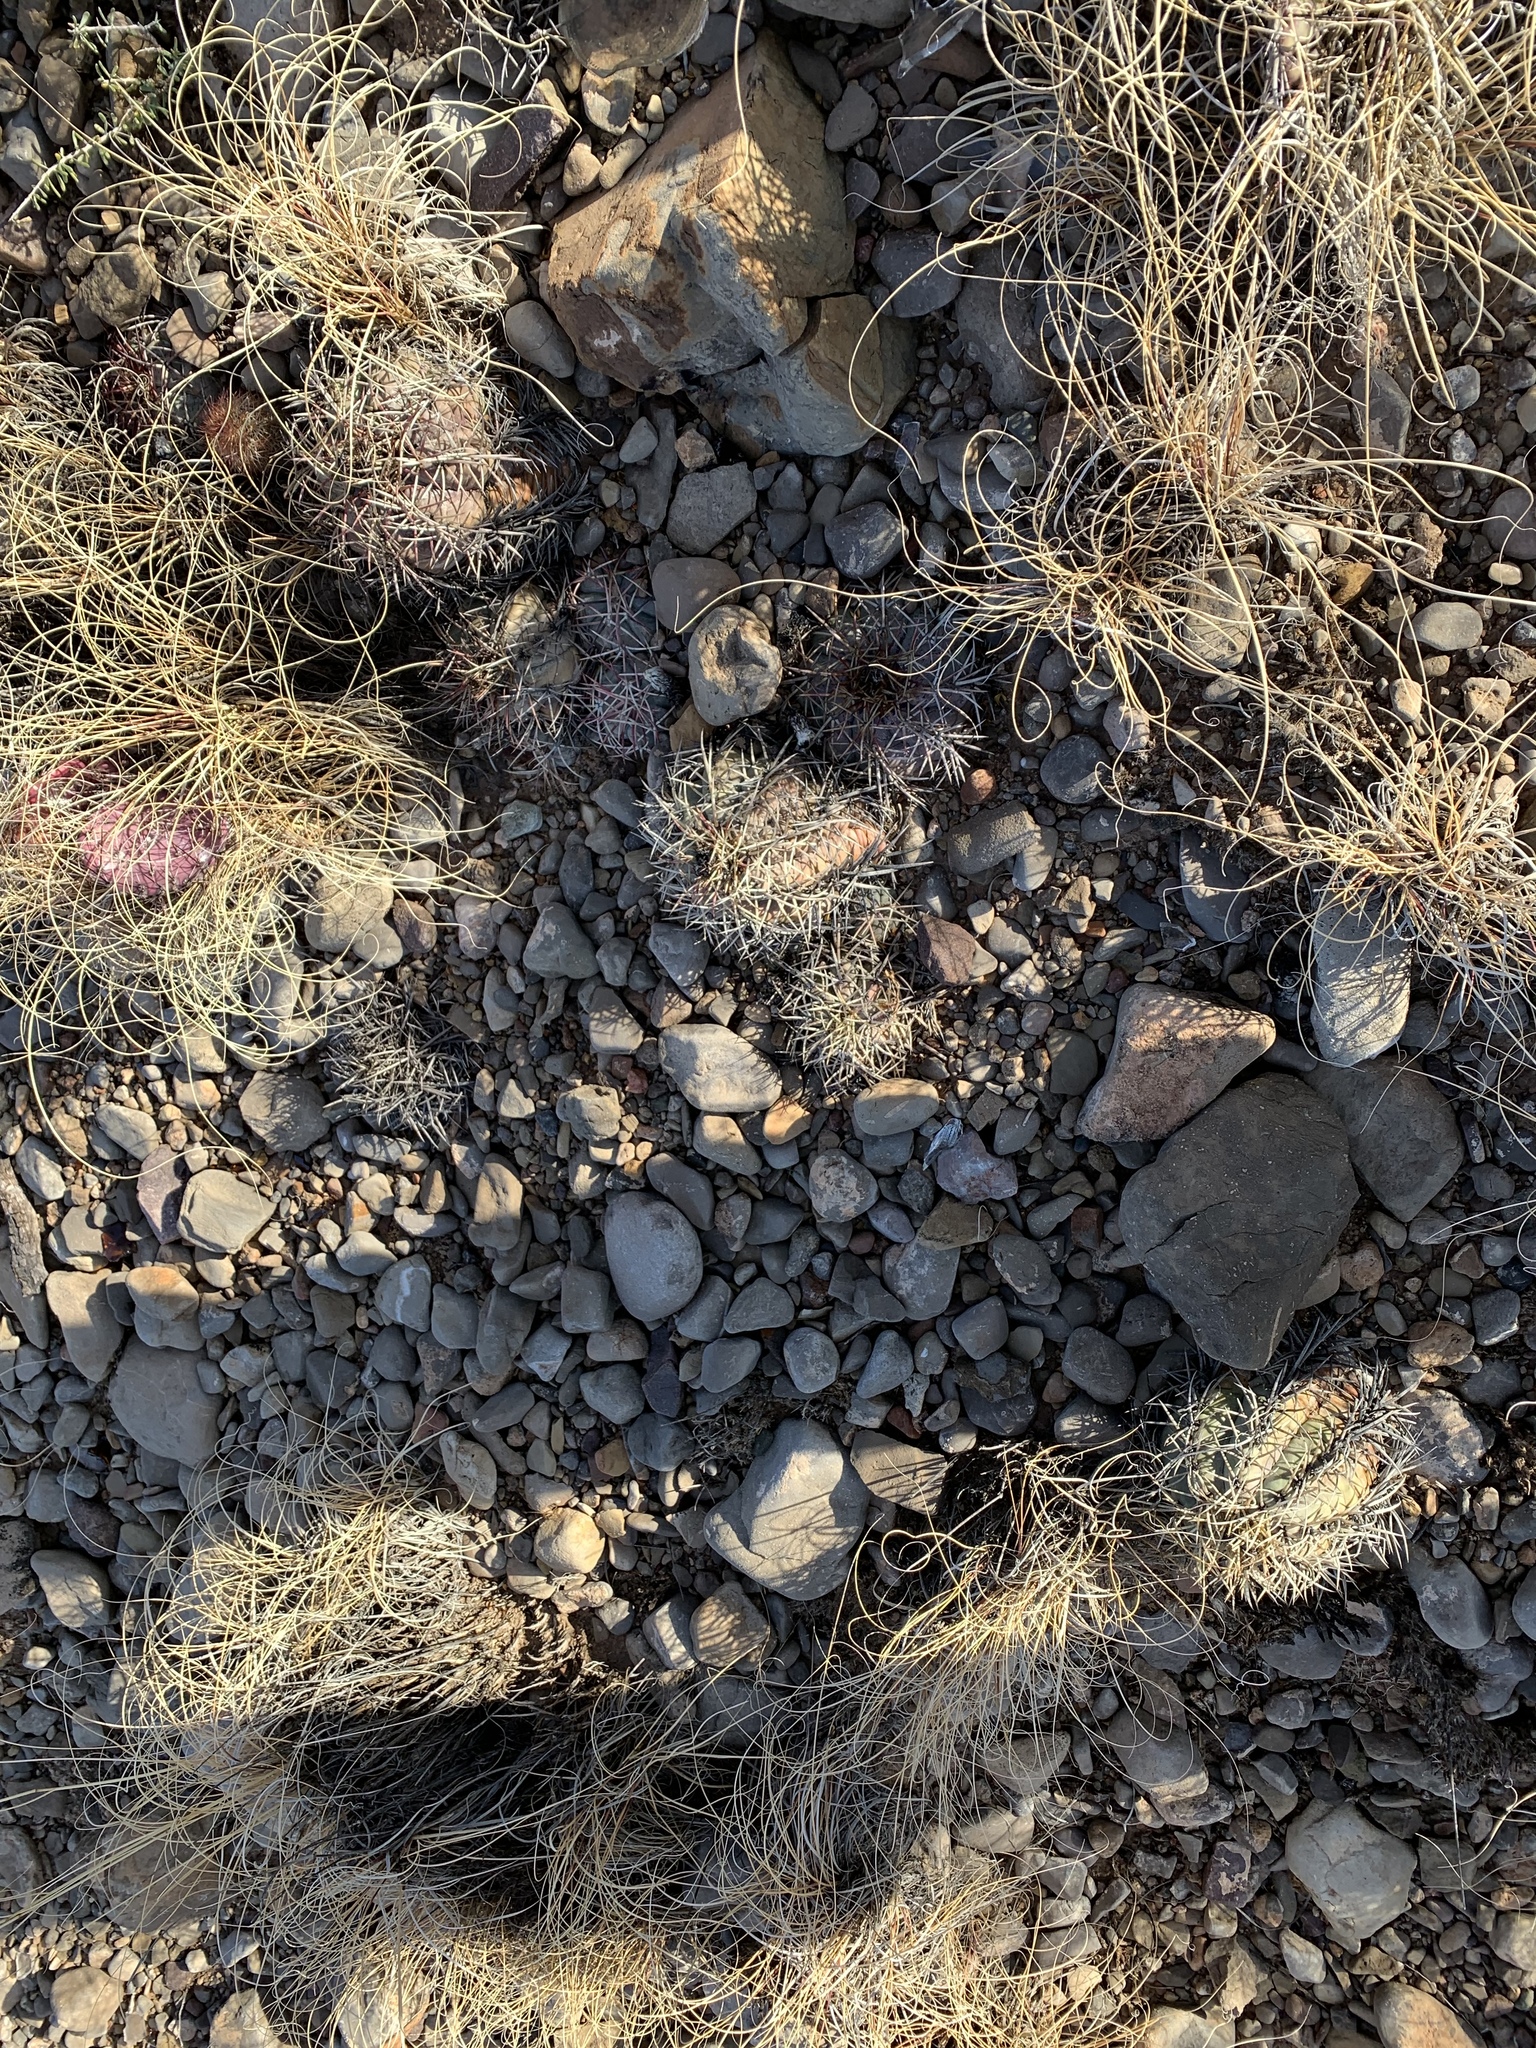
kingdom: Plantae
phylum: Tracheophyta
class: Magnoliopsida
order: Caryophyllales
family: Cactaceae
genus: Echinocactus
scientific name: Echinocactus horizonthalonius
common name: Devilshead
